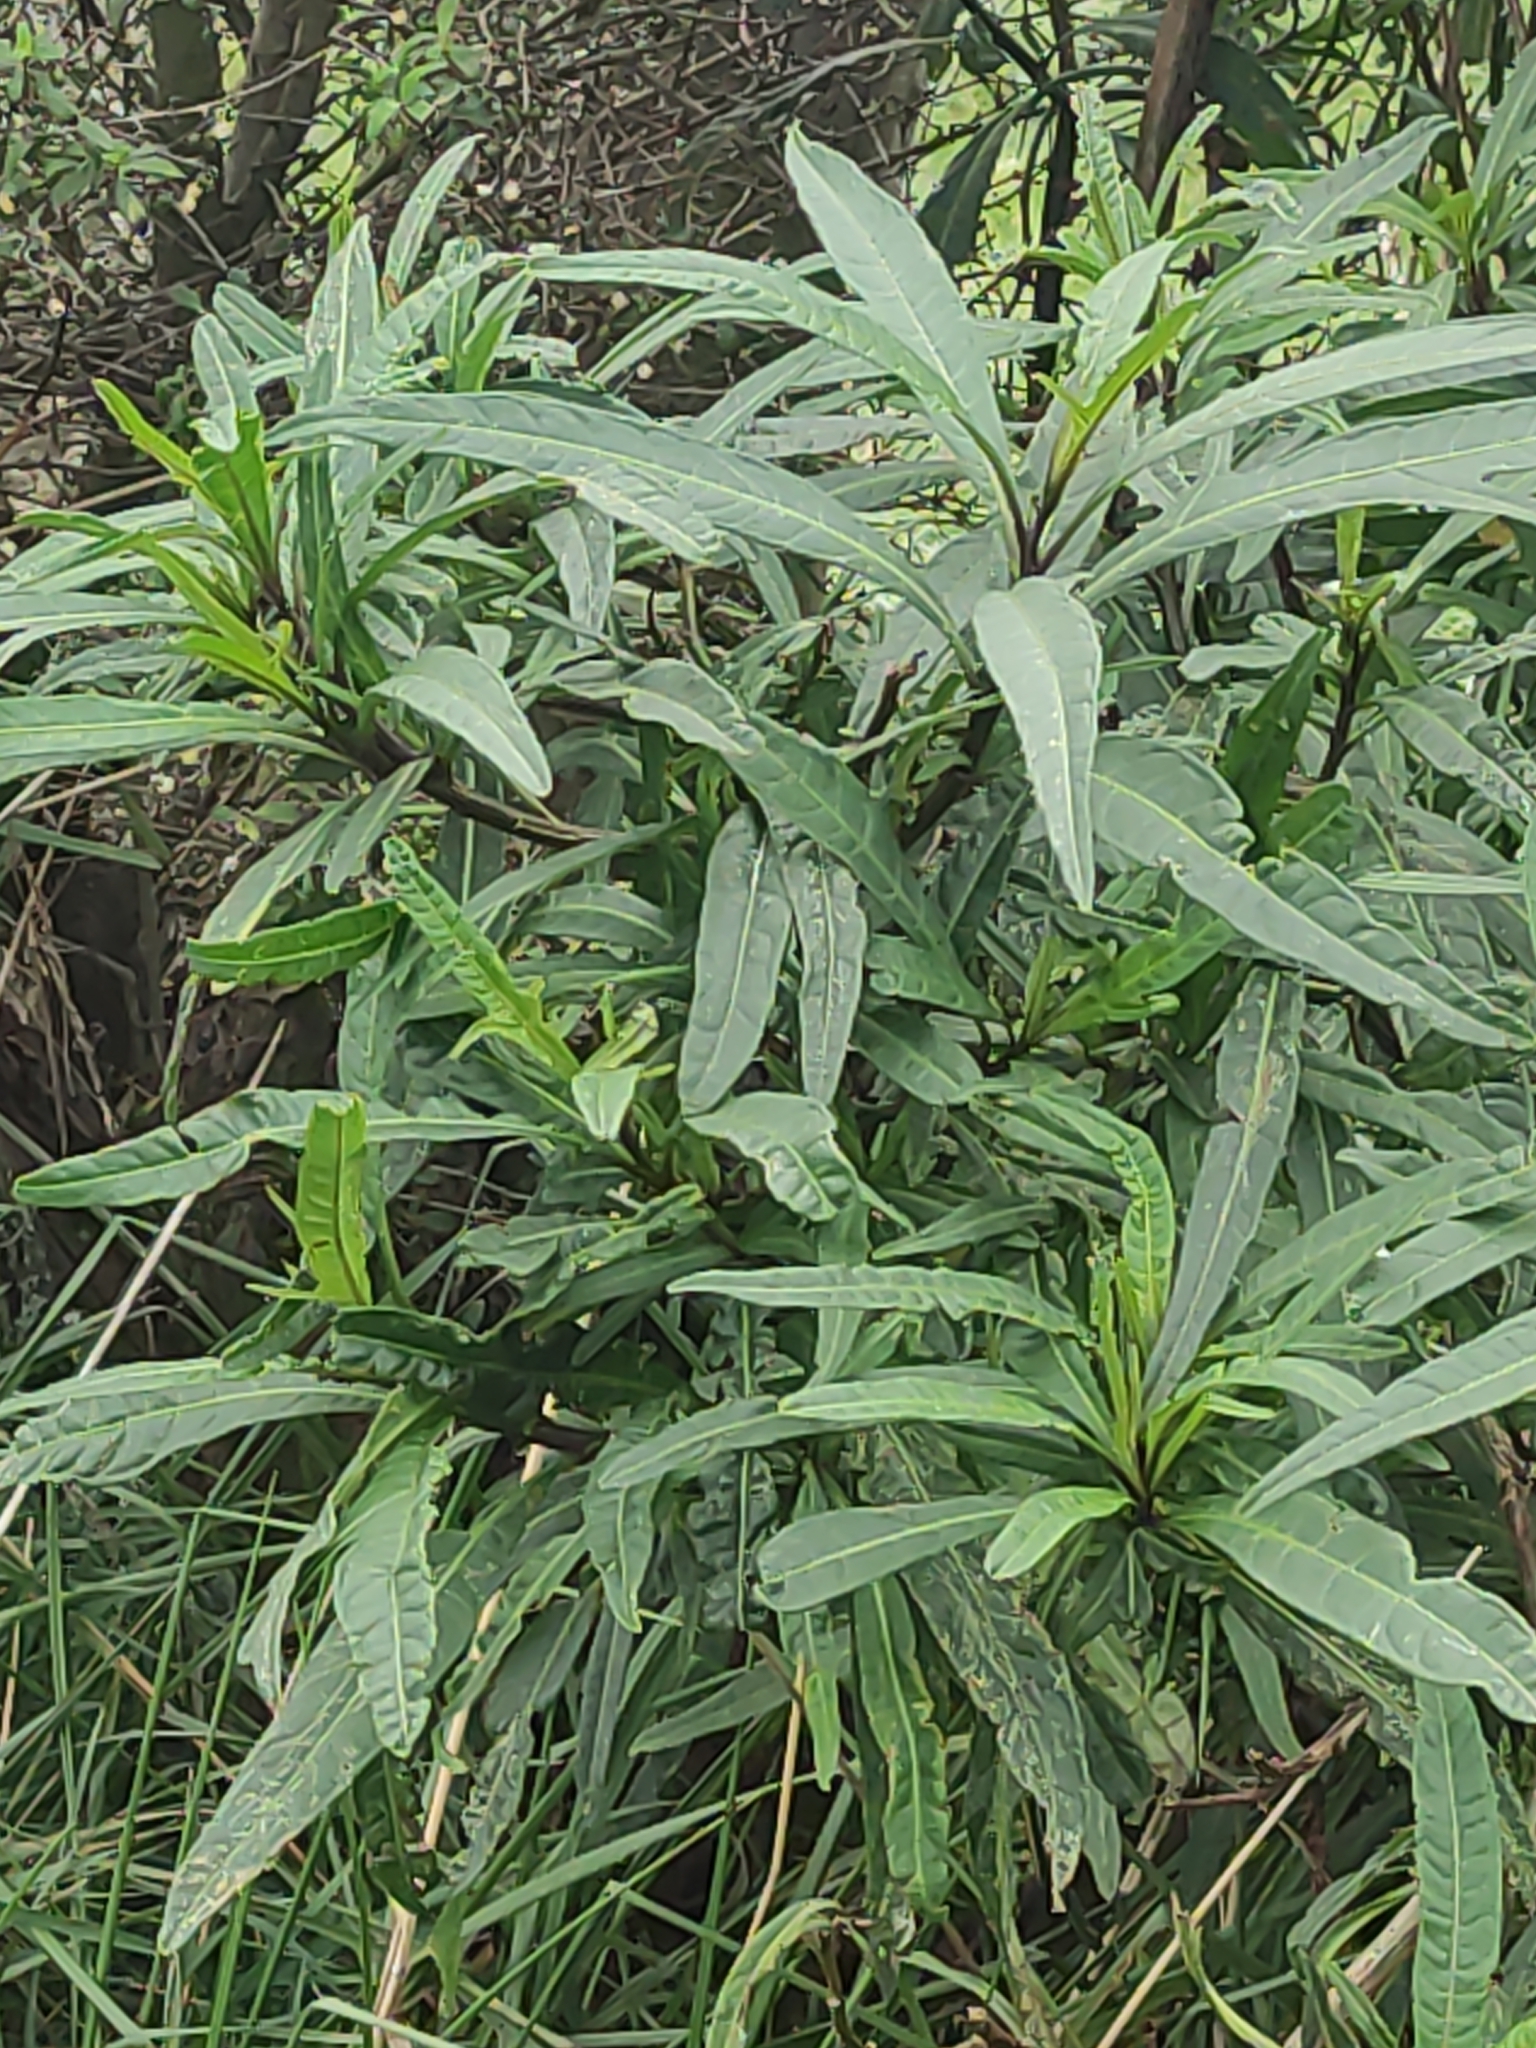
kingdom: Plantae
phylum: Tracheophyta
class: Magnoliopsida
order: Solanales
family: Solanaceae
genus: Solanum
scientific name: Solanum laciniatum
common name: Kangaroo-apple
